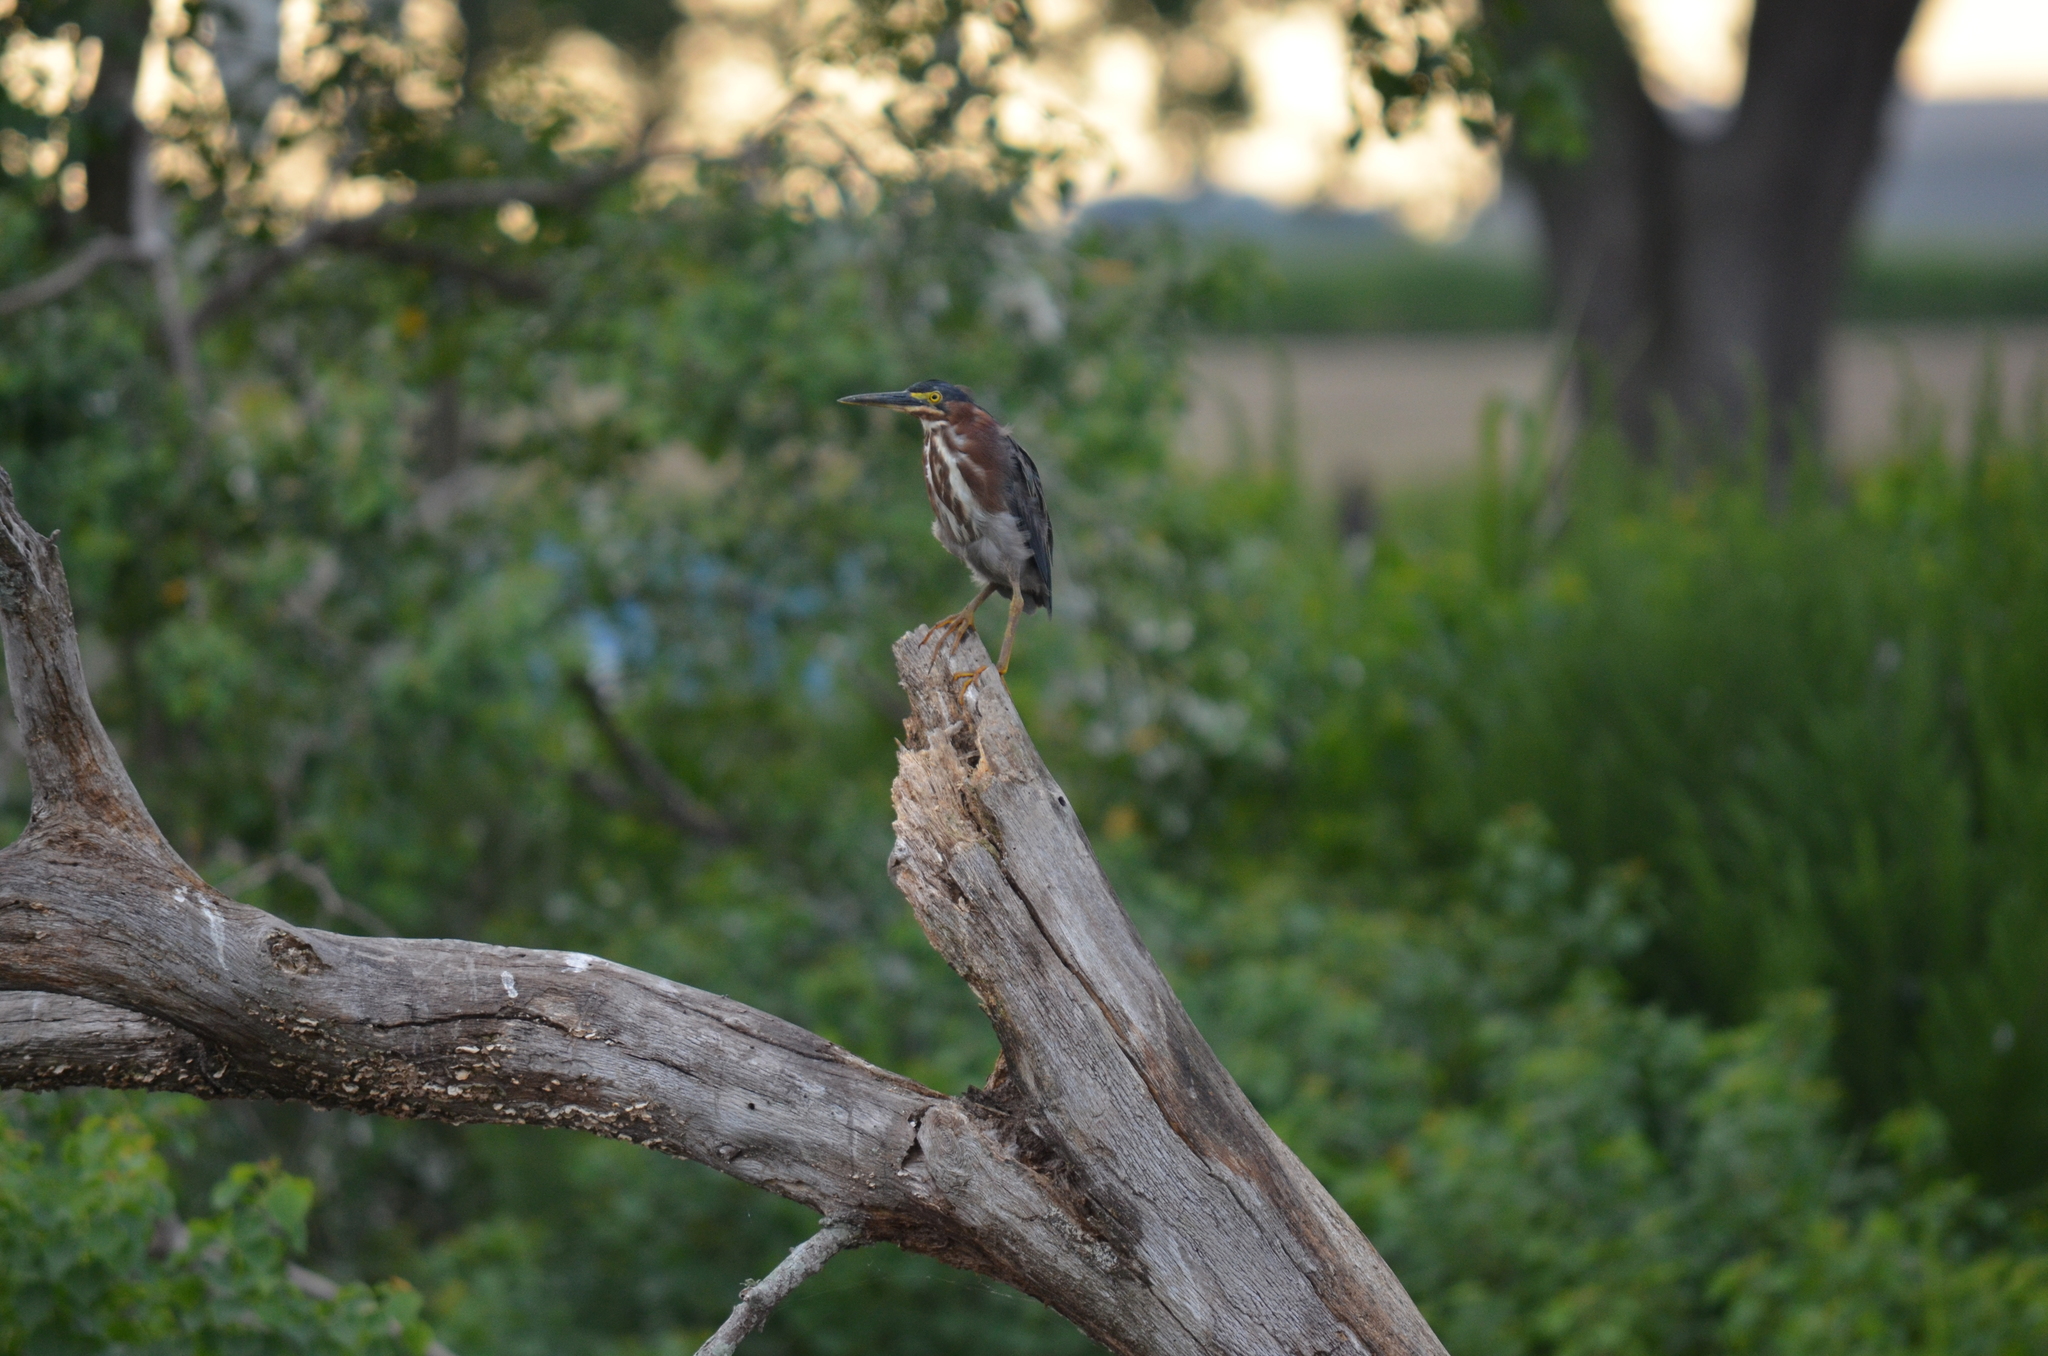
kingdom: Animalia
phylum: Chordata
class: Aves
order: Pelecaniformes
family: Ardeidae
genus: Butorides
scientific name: Butorides virescens
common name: Green heron
